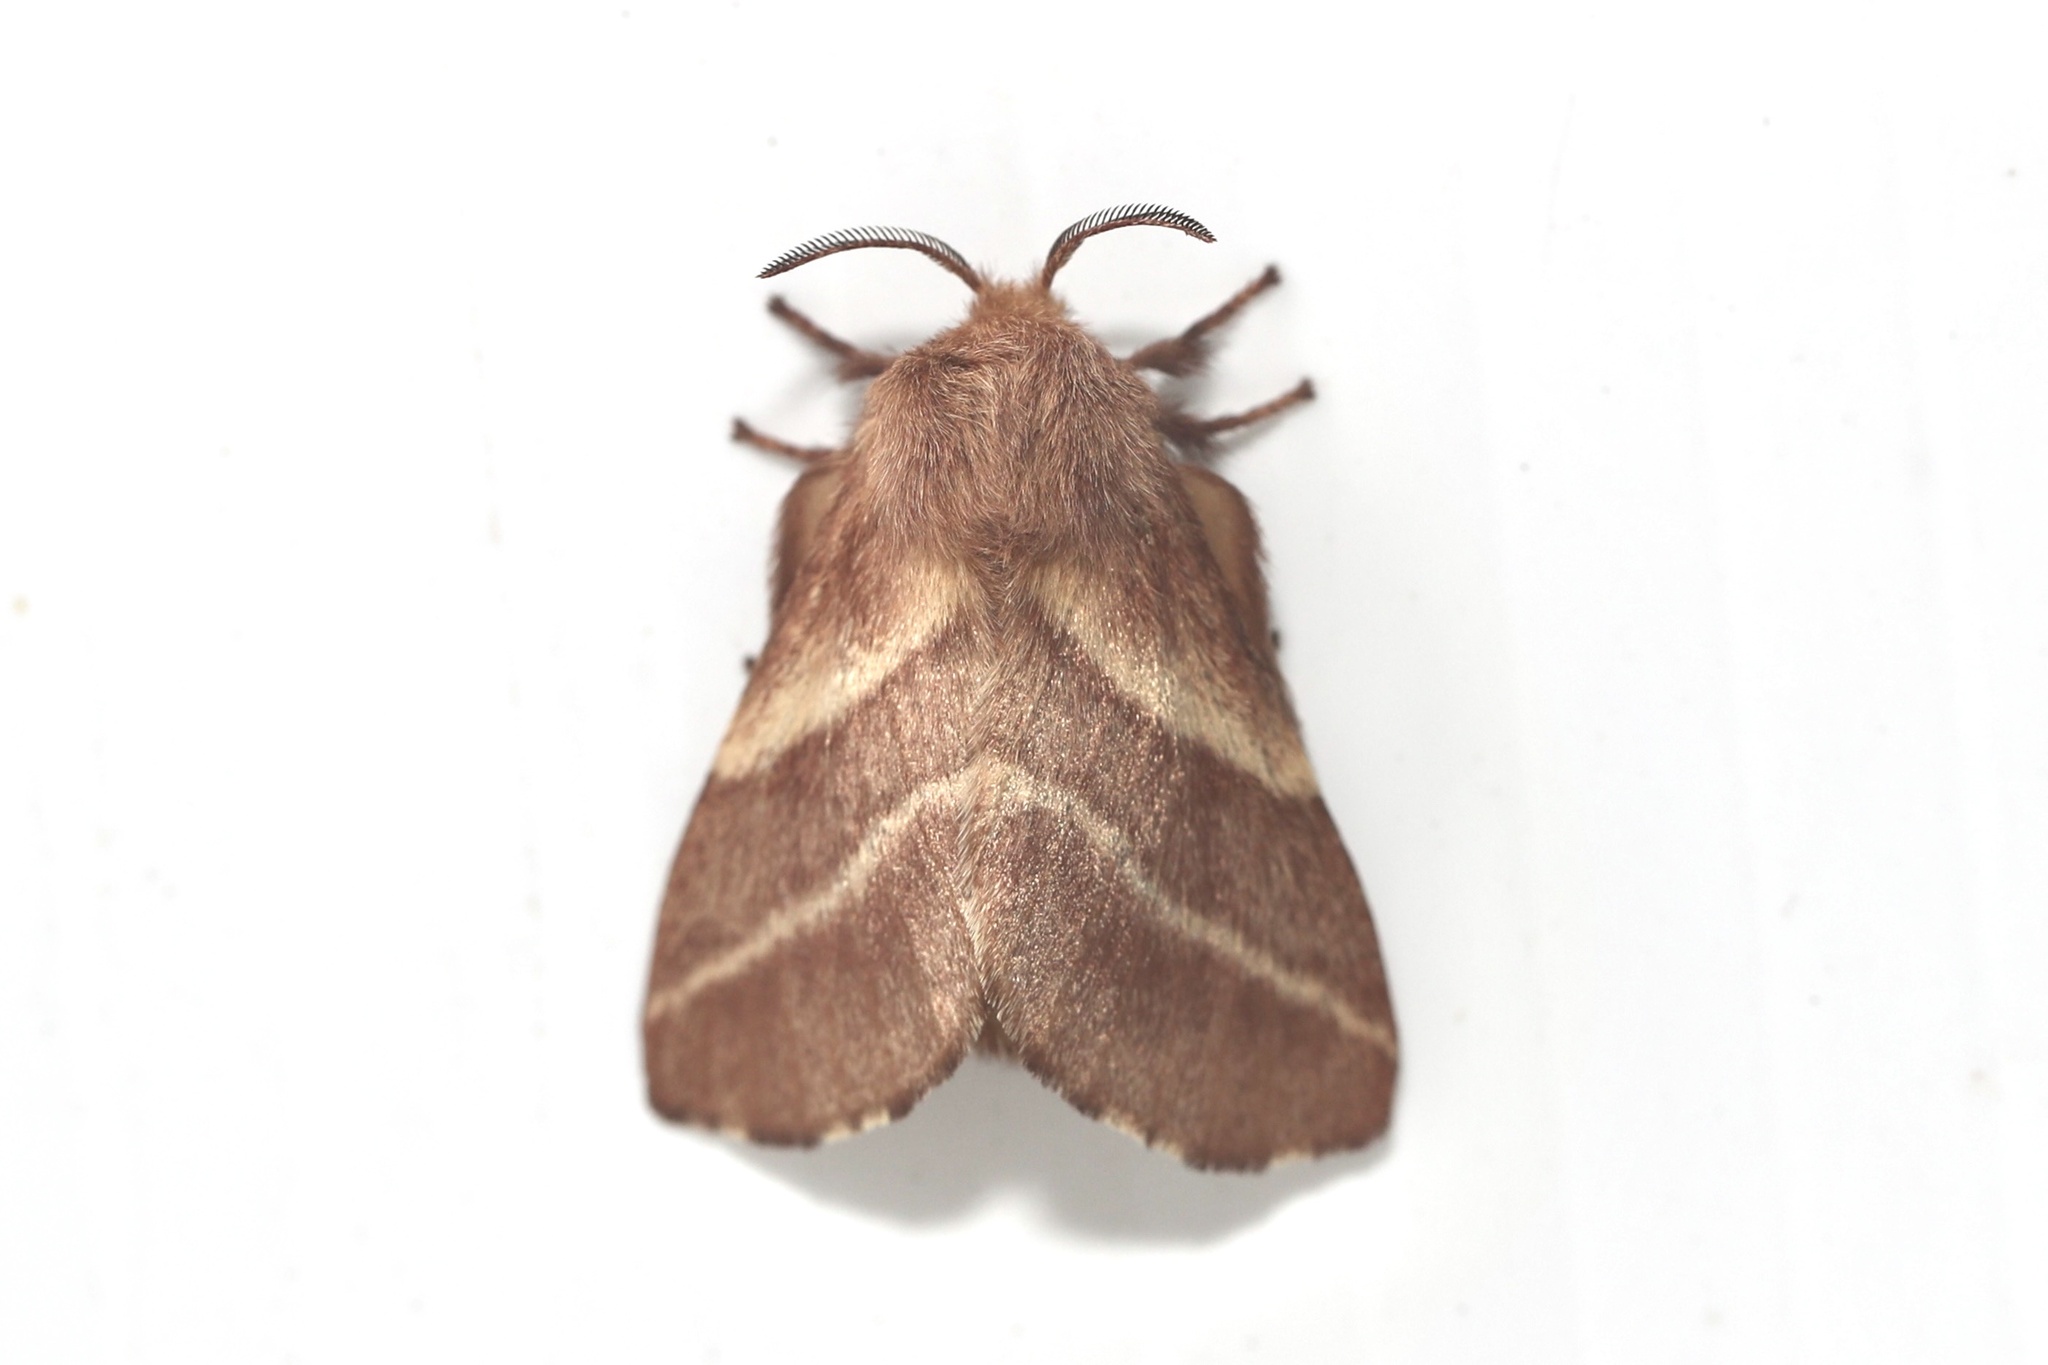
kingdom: Animalia
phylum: Arthropoda
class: Insecta
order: Lepidoptera
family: Lasiocampidae
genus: Malacosoma
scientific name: Malacosoma americana
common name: Eastern tent caterpillar moth
